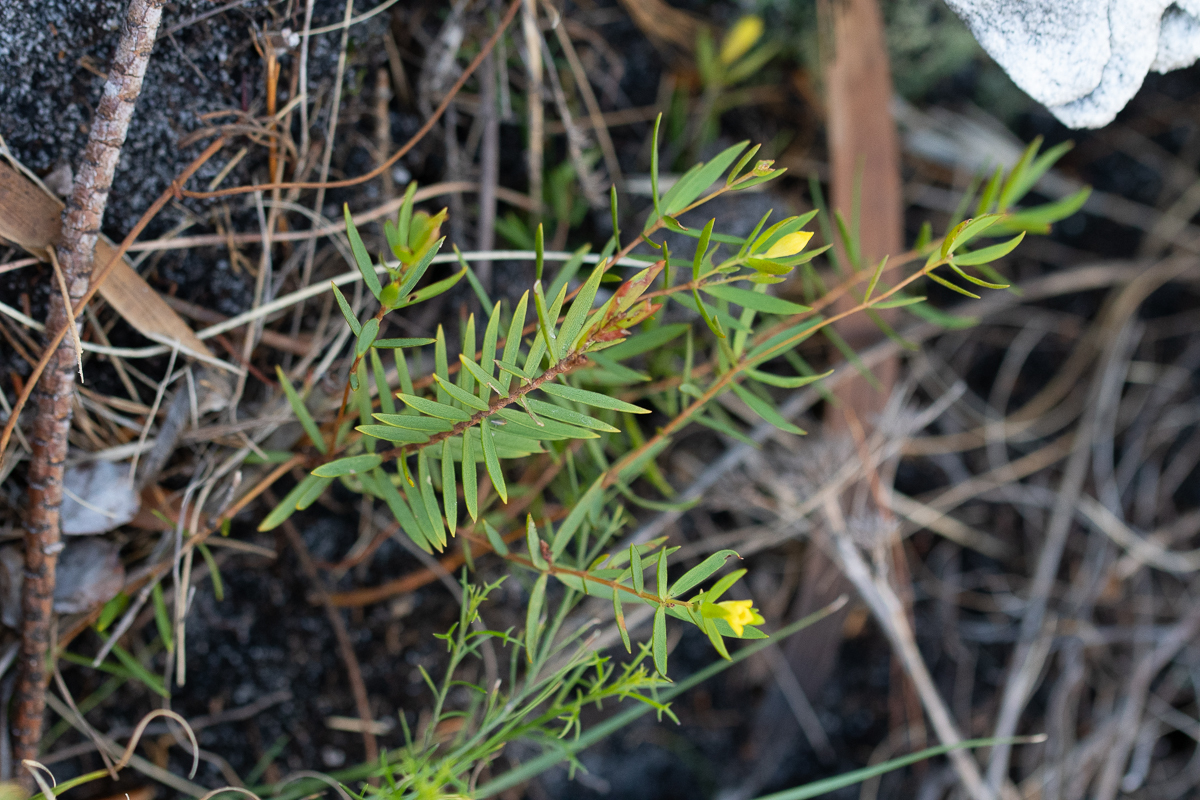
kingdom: Plantae
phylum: Tracheophyta
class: Magnoliopsida
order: Malvales
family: Thymelaeaceae
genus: Gnidia
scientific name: Gnidia galpinii
